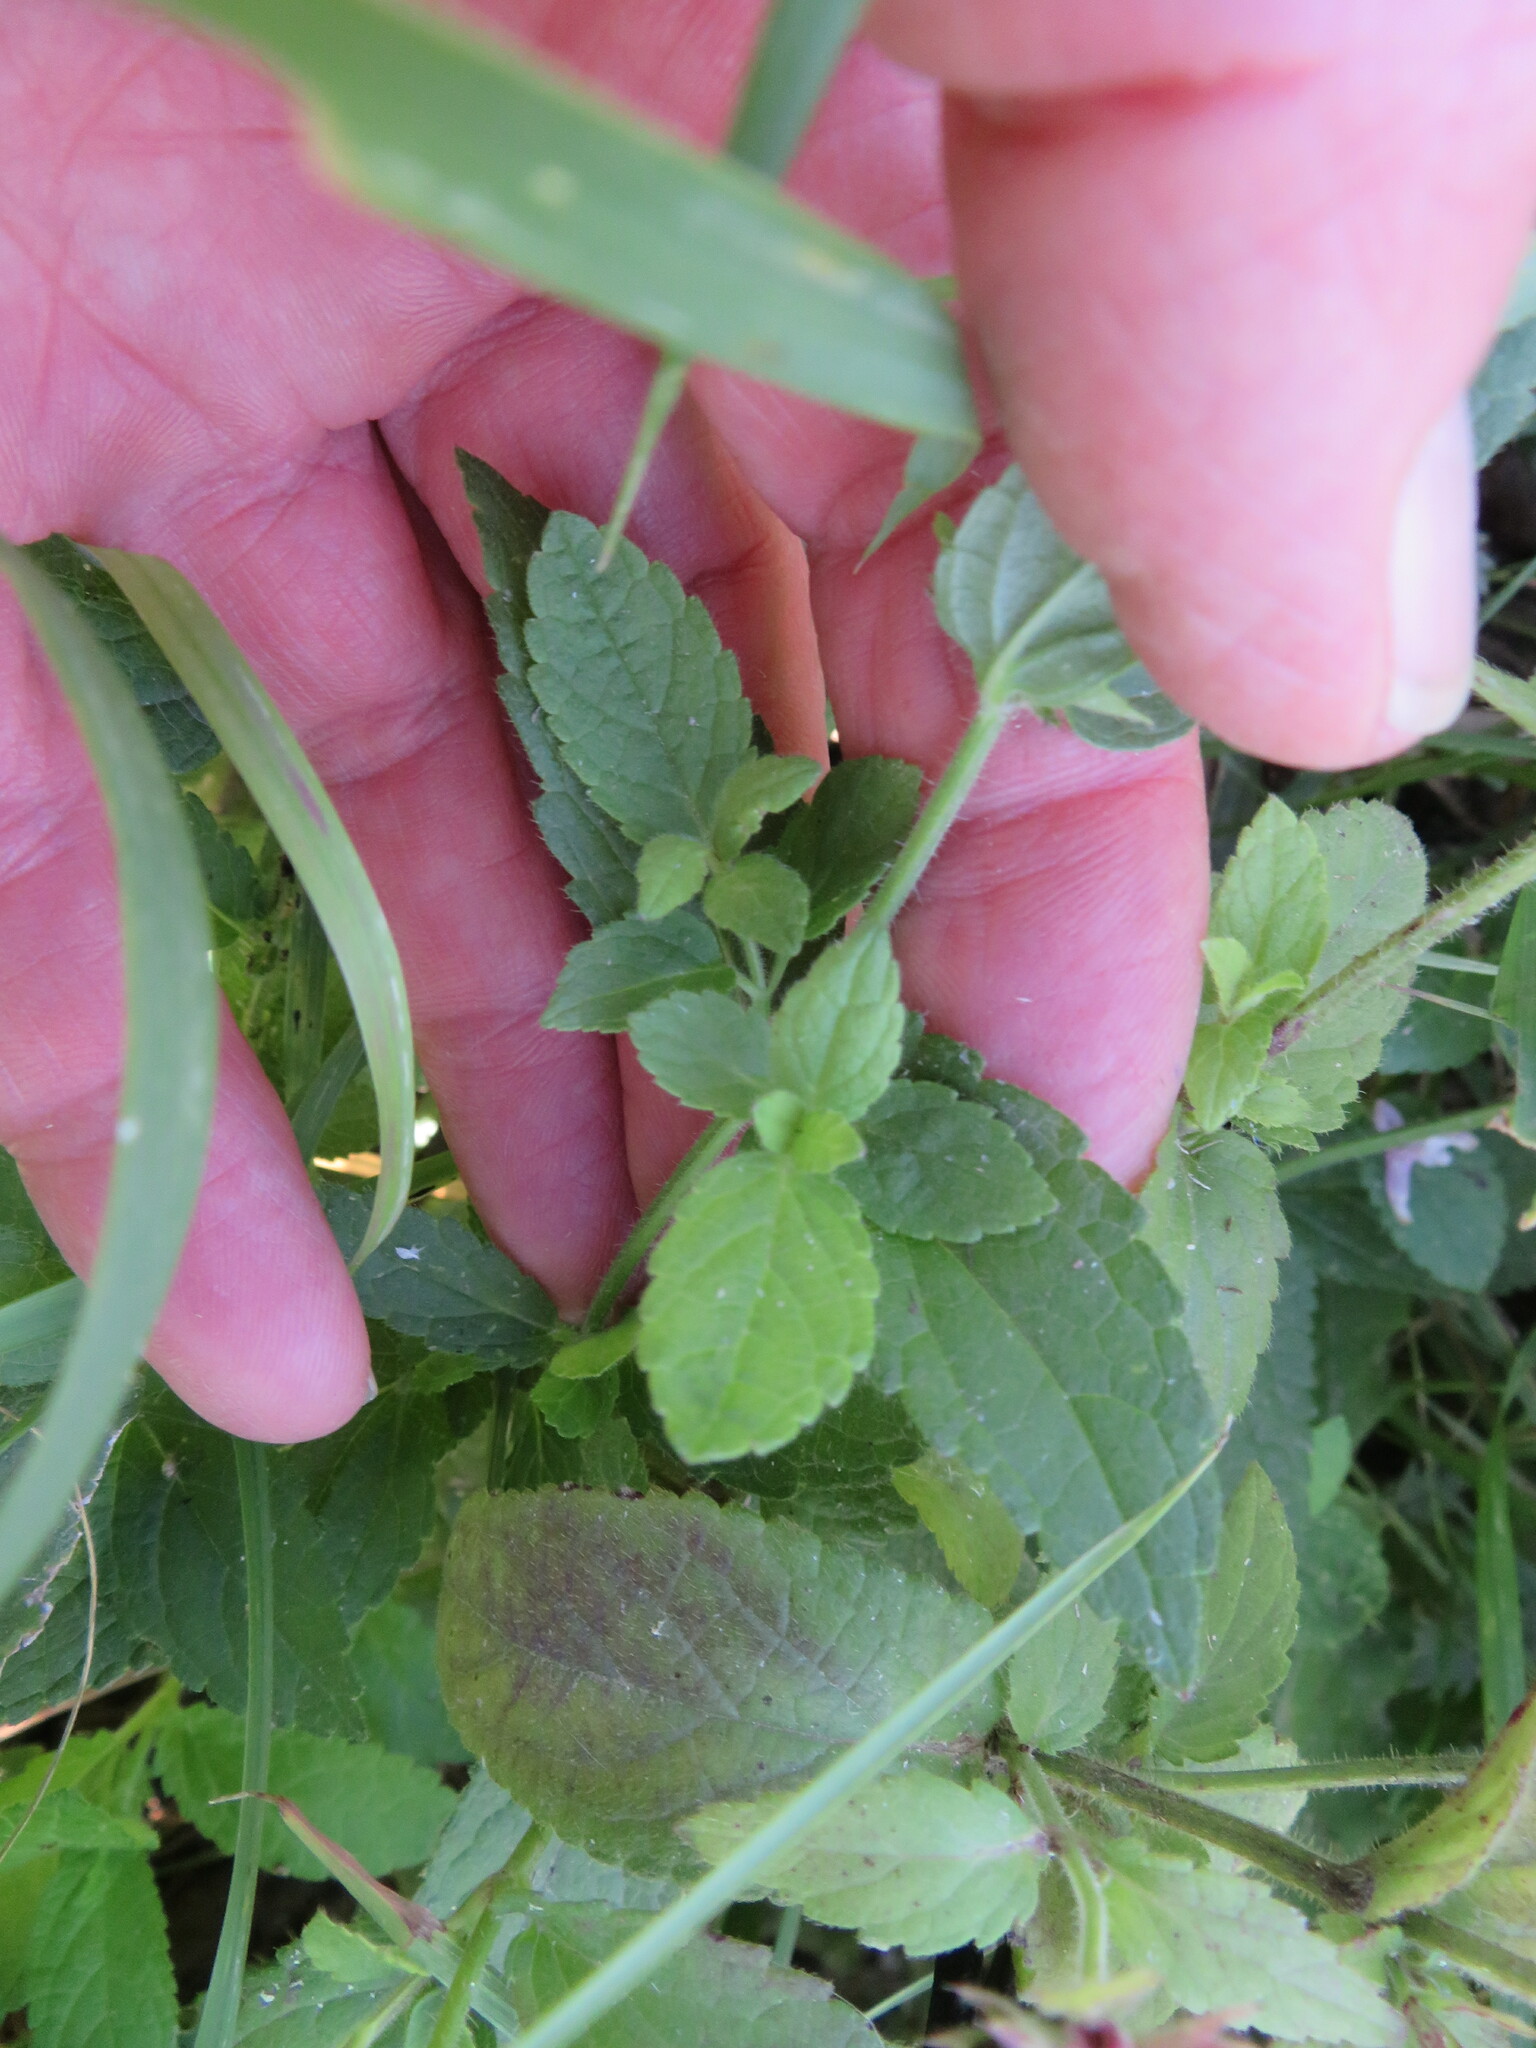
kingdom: Plantae
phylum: Tracheophyta
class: Magnoliopsida
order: Lamiales
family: Lamiaceae
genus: Stachys
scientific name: Stachys pilosa
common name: Hairy hedge-nettle
